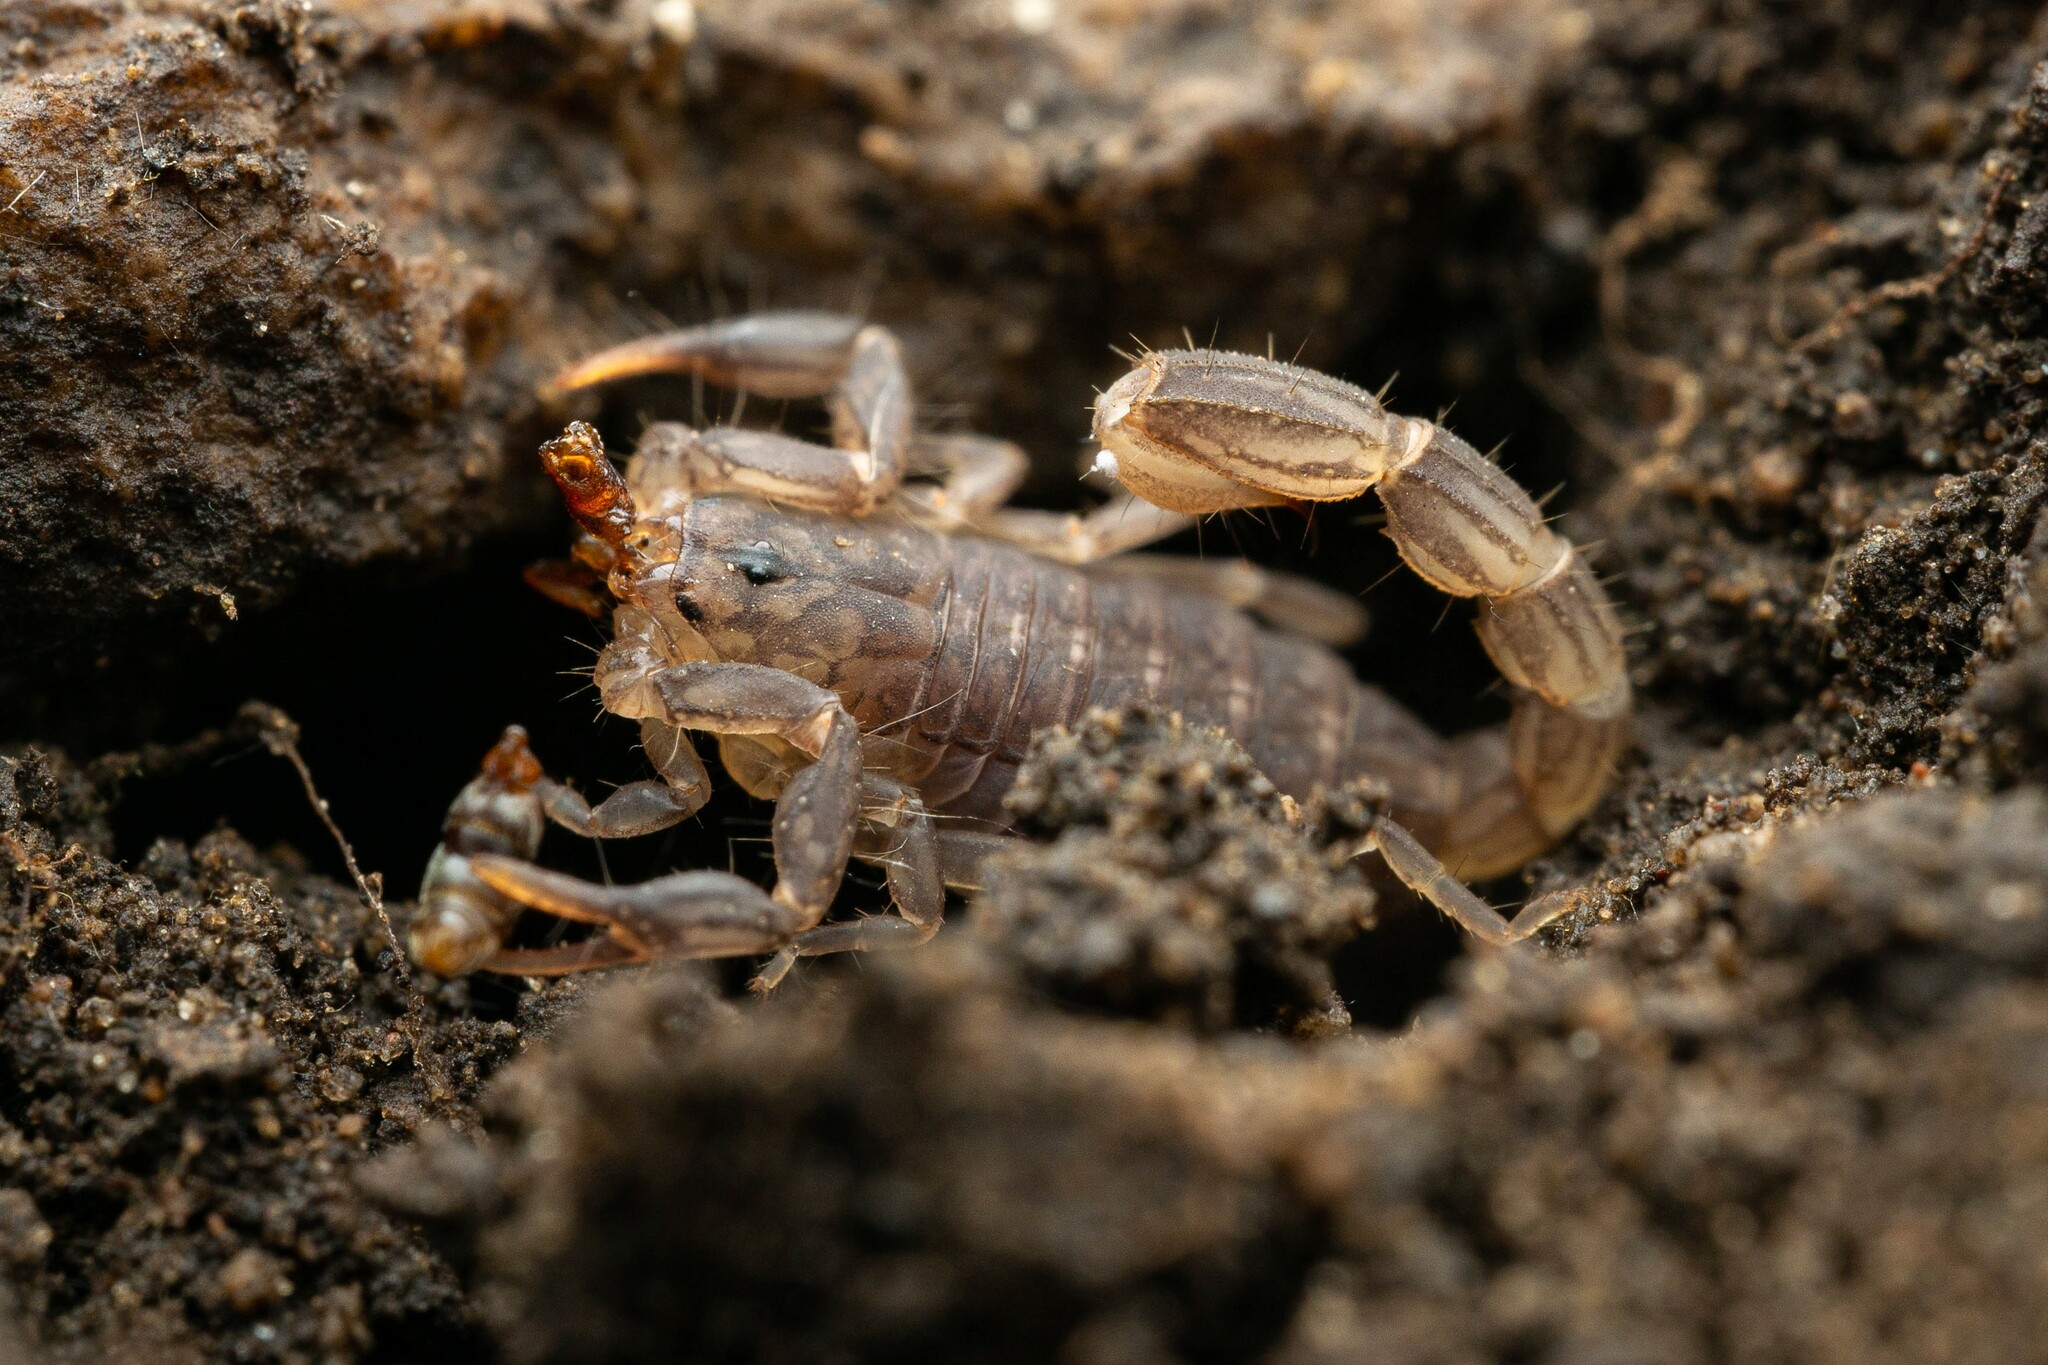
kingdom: Animalia
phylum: Arthropoda
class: Arachnida
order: Scorpiones
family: Vaejovidae
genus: Vaejovis
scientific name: Vaejovis cashi
